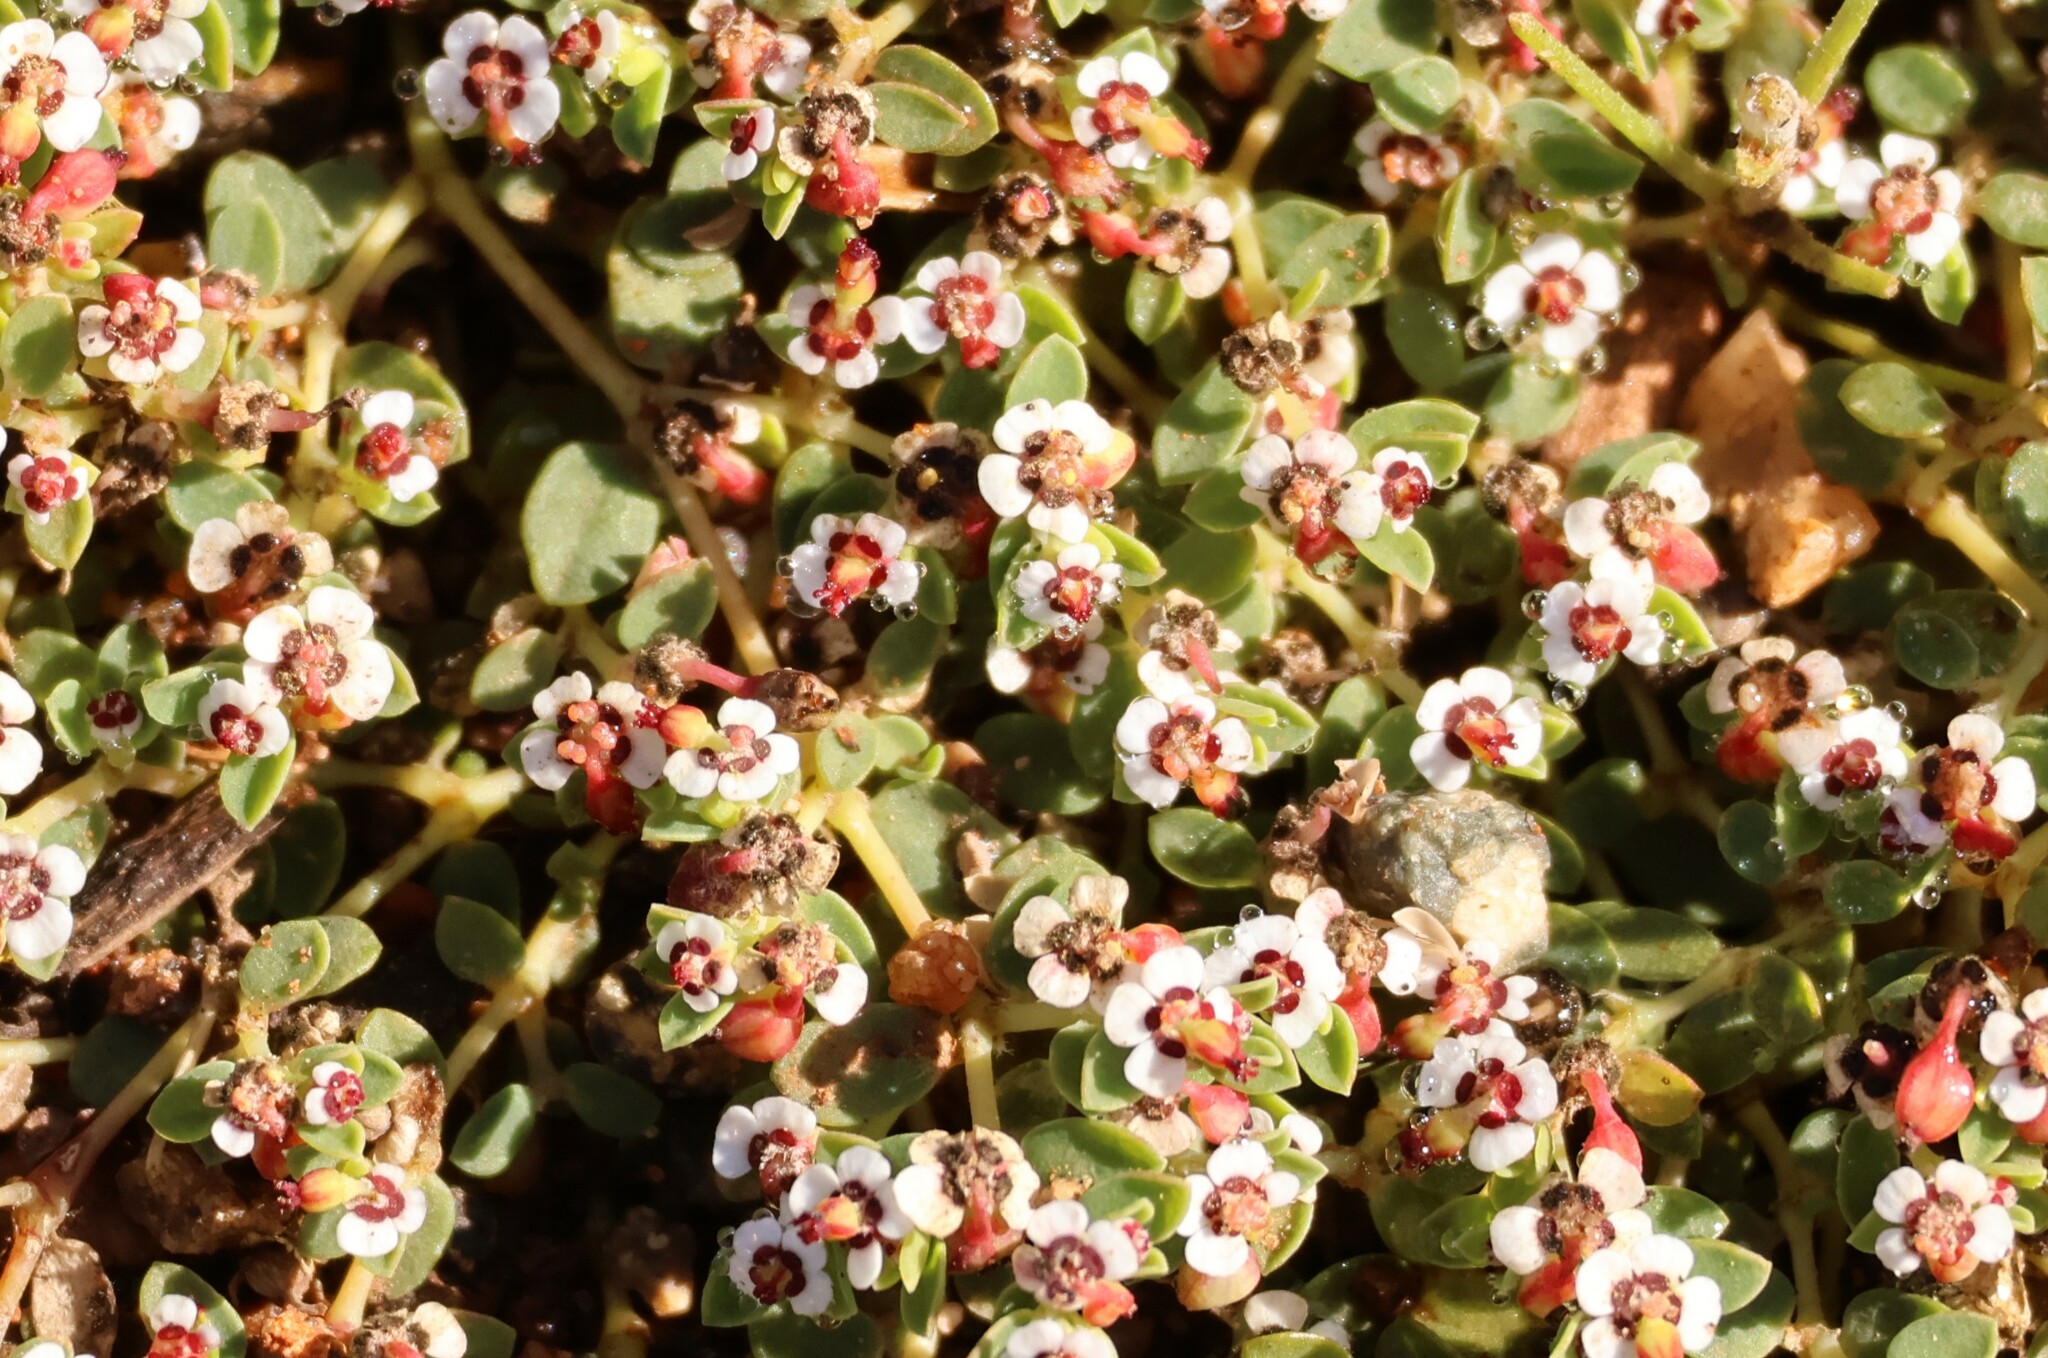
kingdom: Plantae
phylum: Tracheophyta
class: Magnoliopsida
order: Malpighiales
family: Euphorbiaceae
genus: Euphorbia
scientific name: Euphorbia polycarpa
